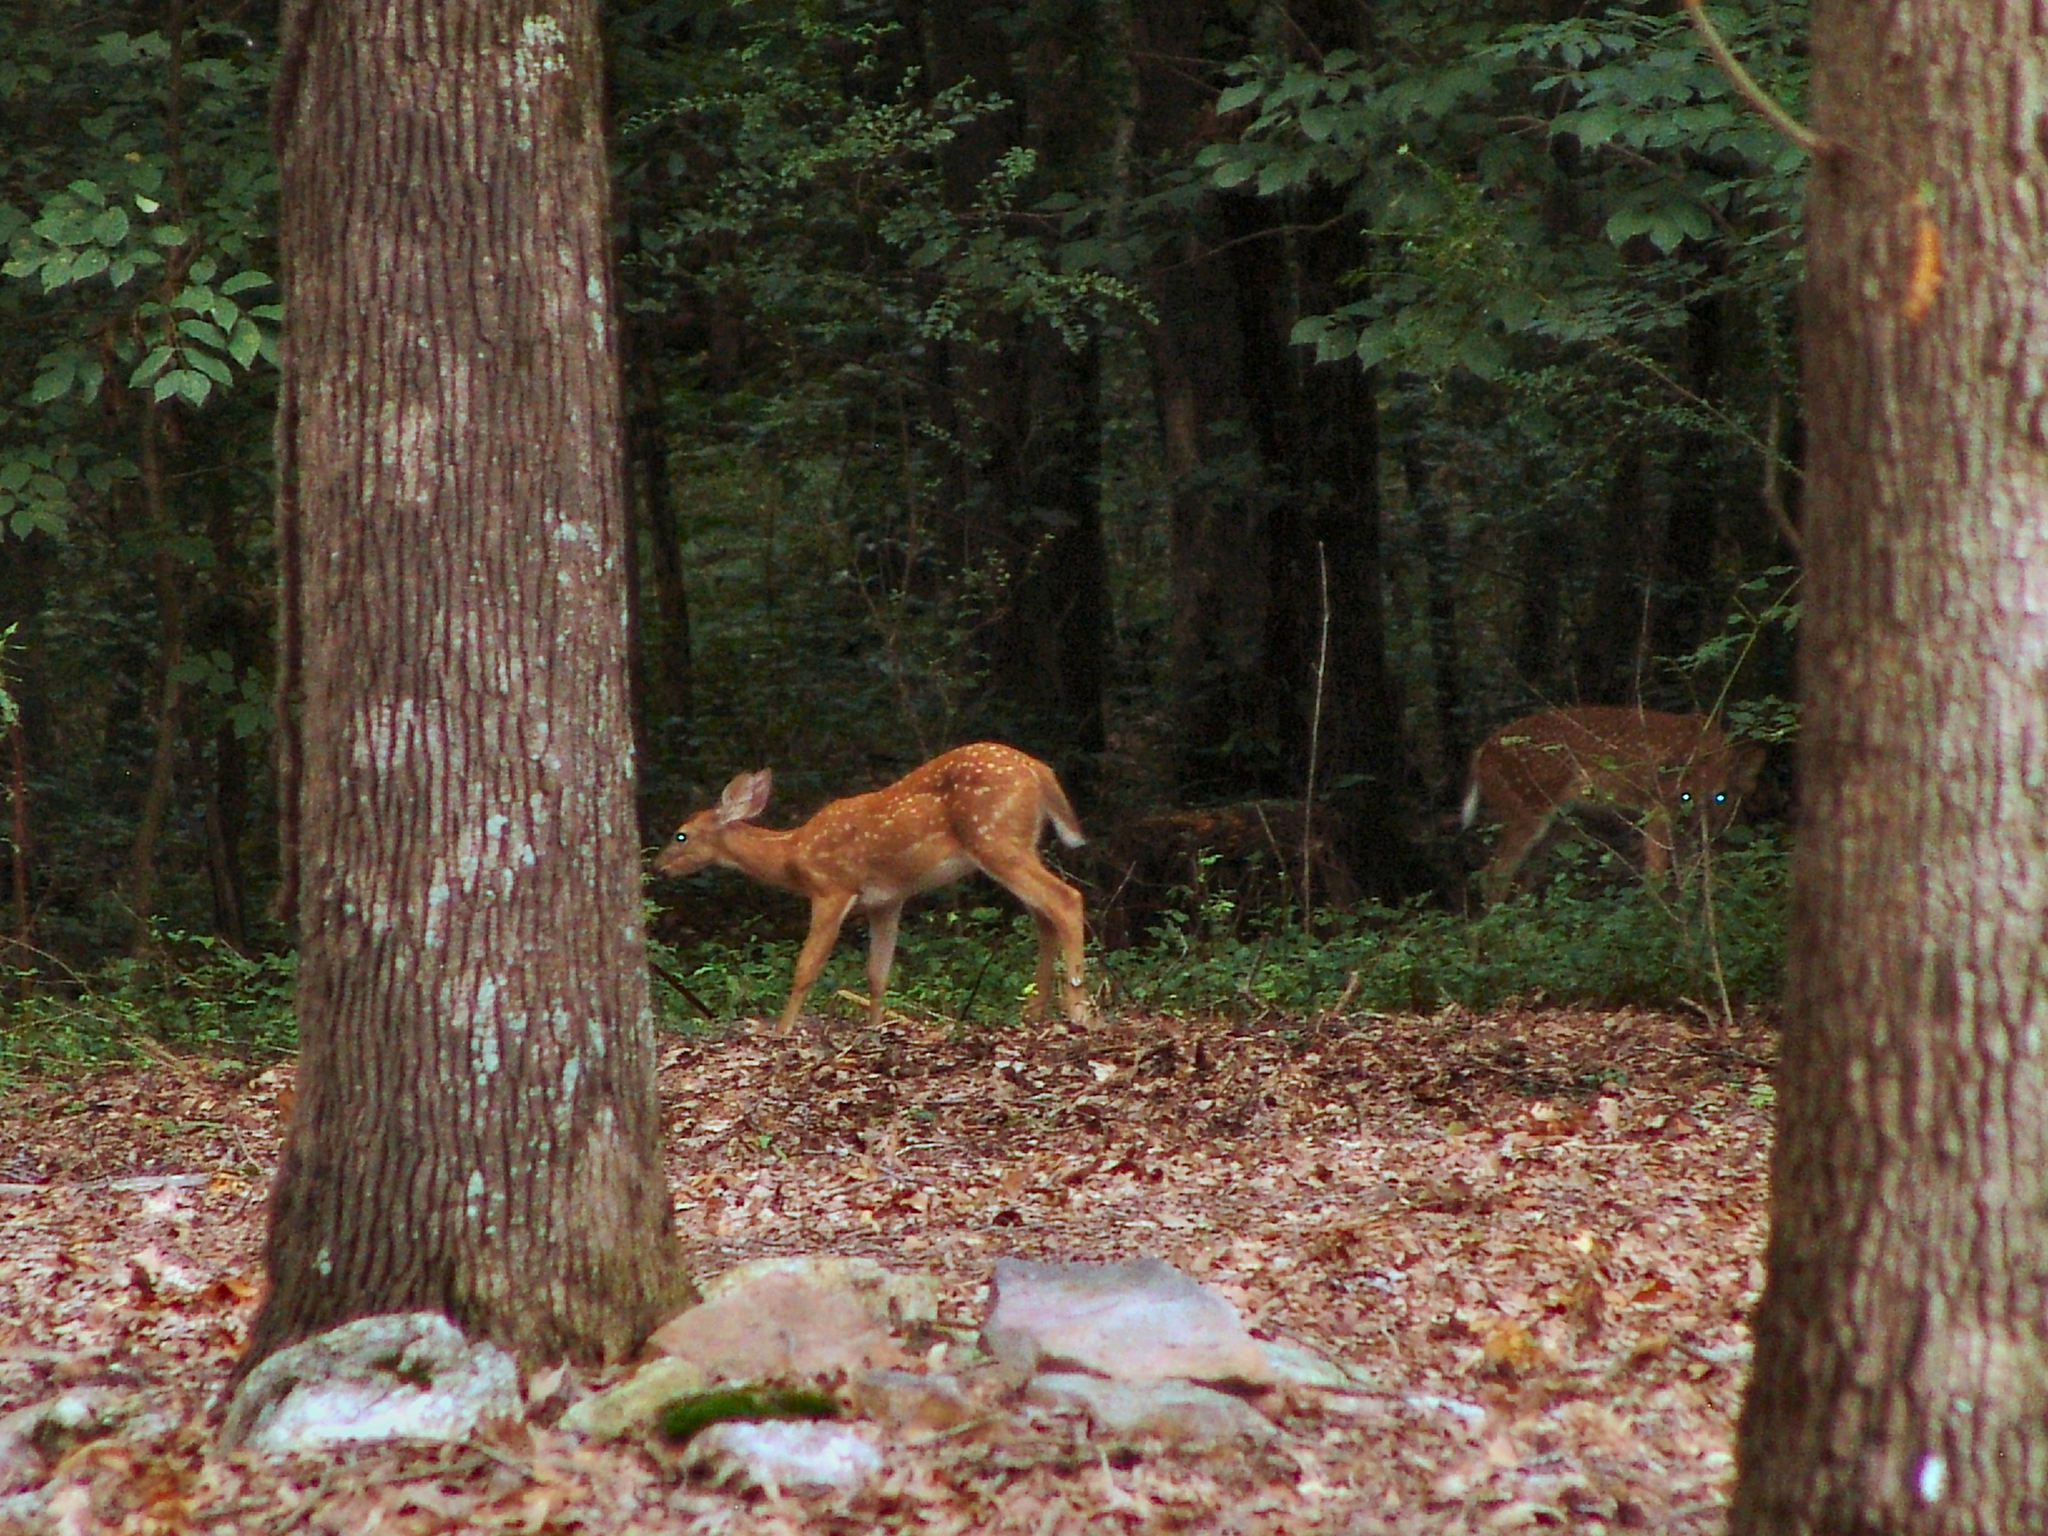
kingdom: Animalia
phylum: Chordata
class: Mammalia
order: Artiodactyla
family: Cervidae
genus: Odocoileus
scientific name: Odocoileus virginianus
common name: White-tailed deer
